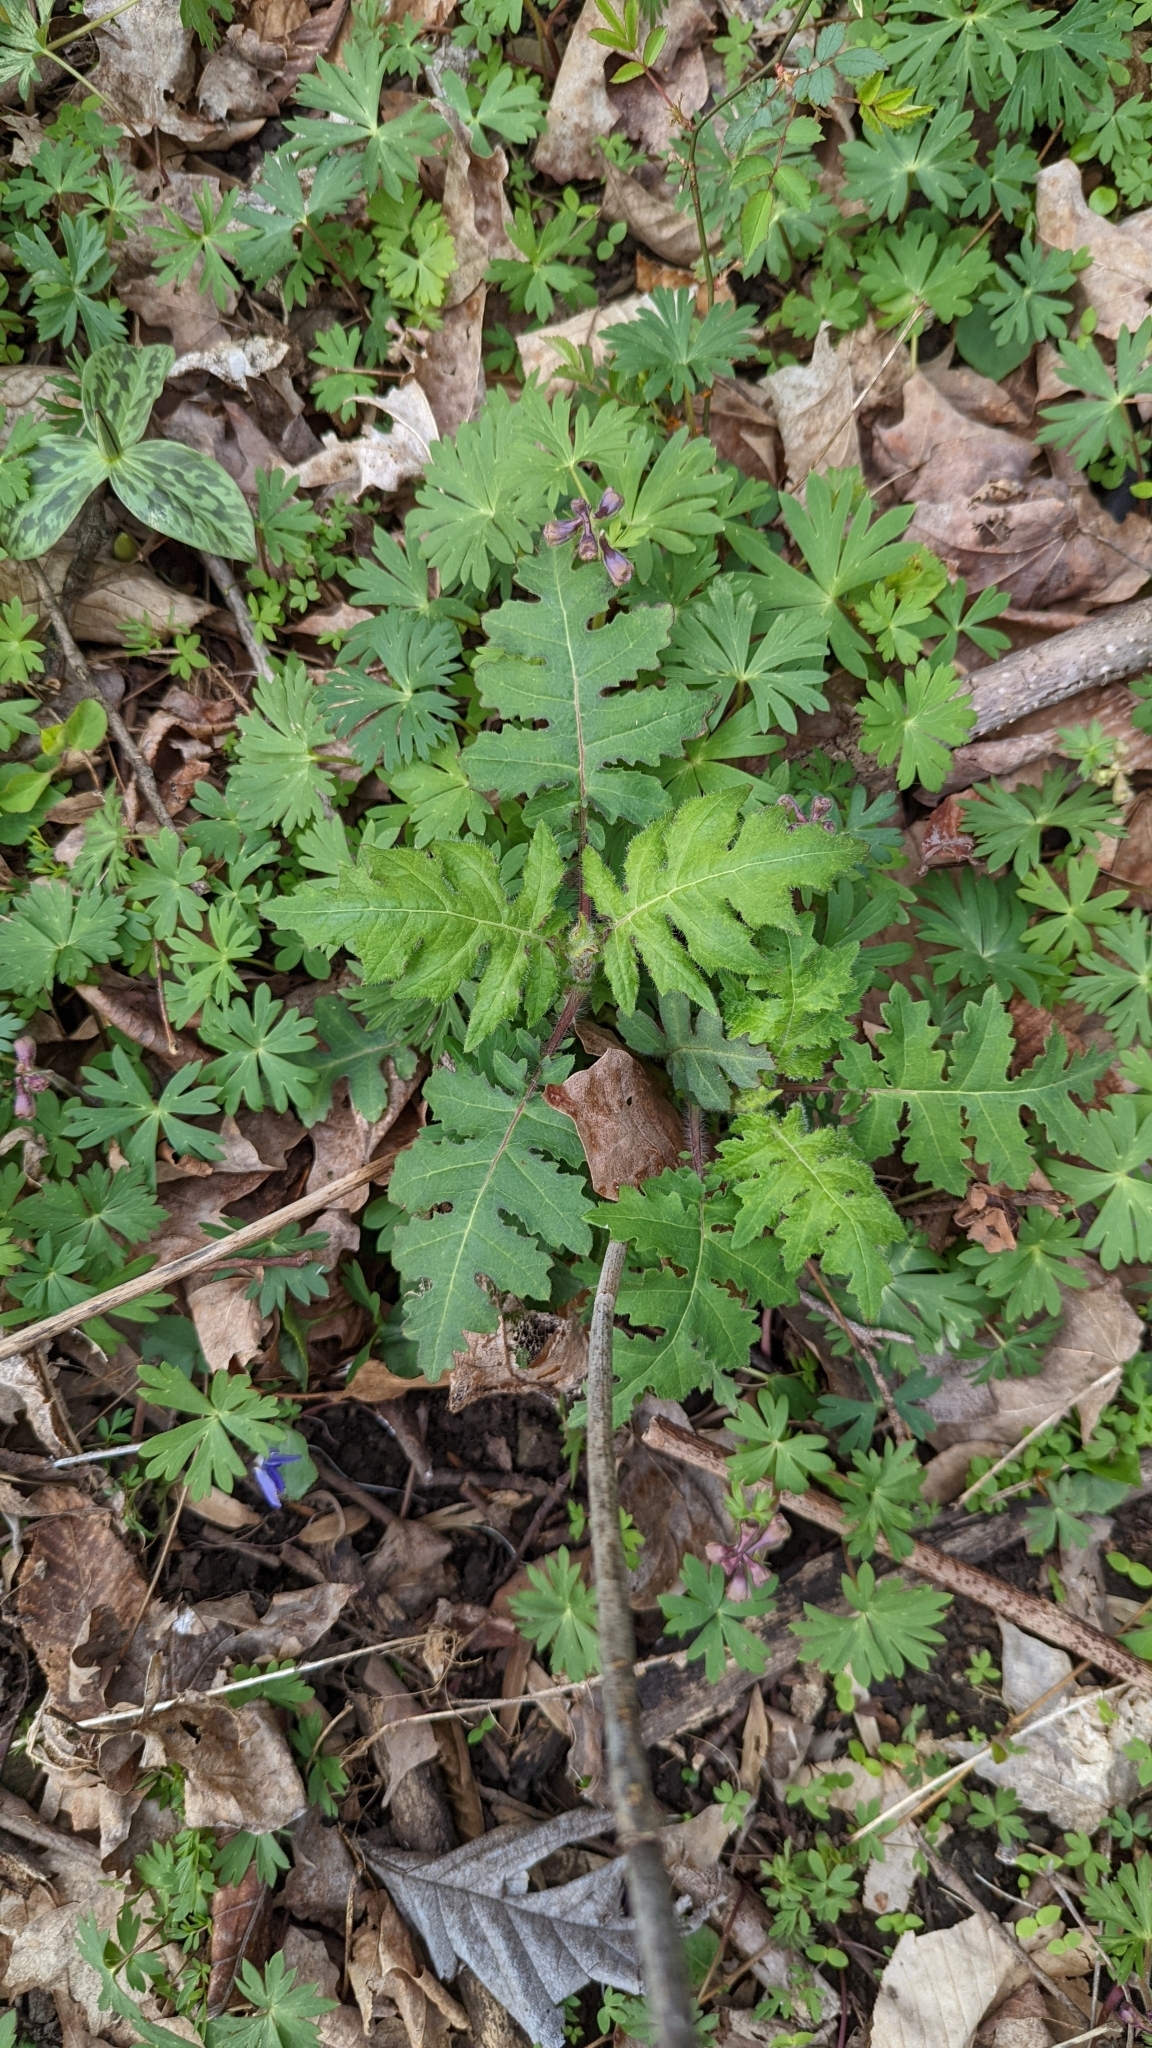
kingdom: Plantae
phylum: Tracheophyta
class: Magnoliopsida
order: Asterales
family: Asteraceae
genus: Polymnia
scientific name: Polymnia canadensis
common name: Pale-flowered leafcup
